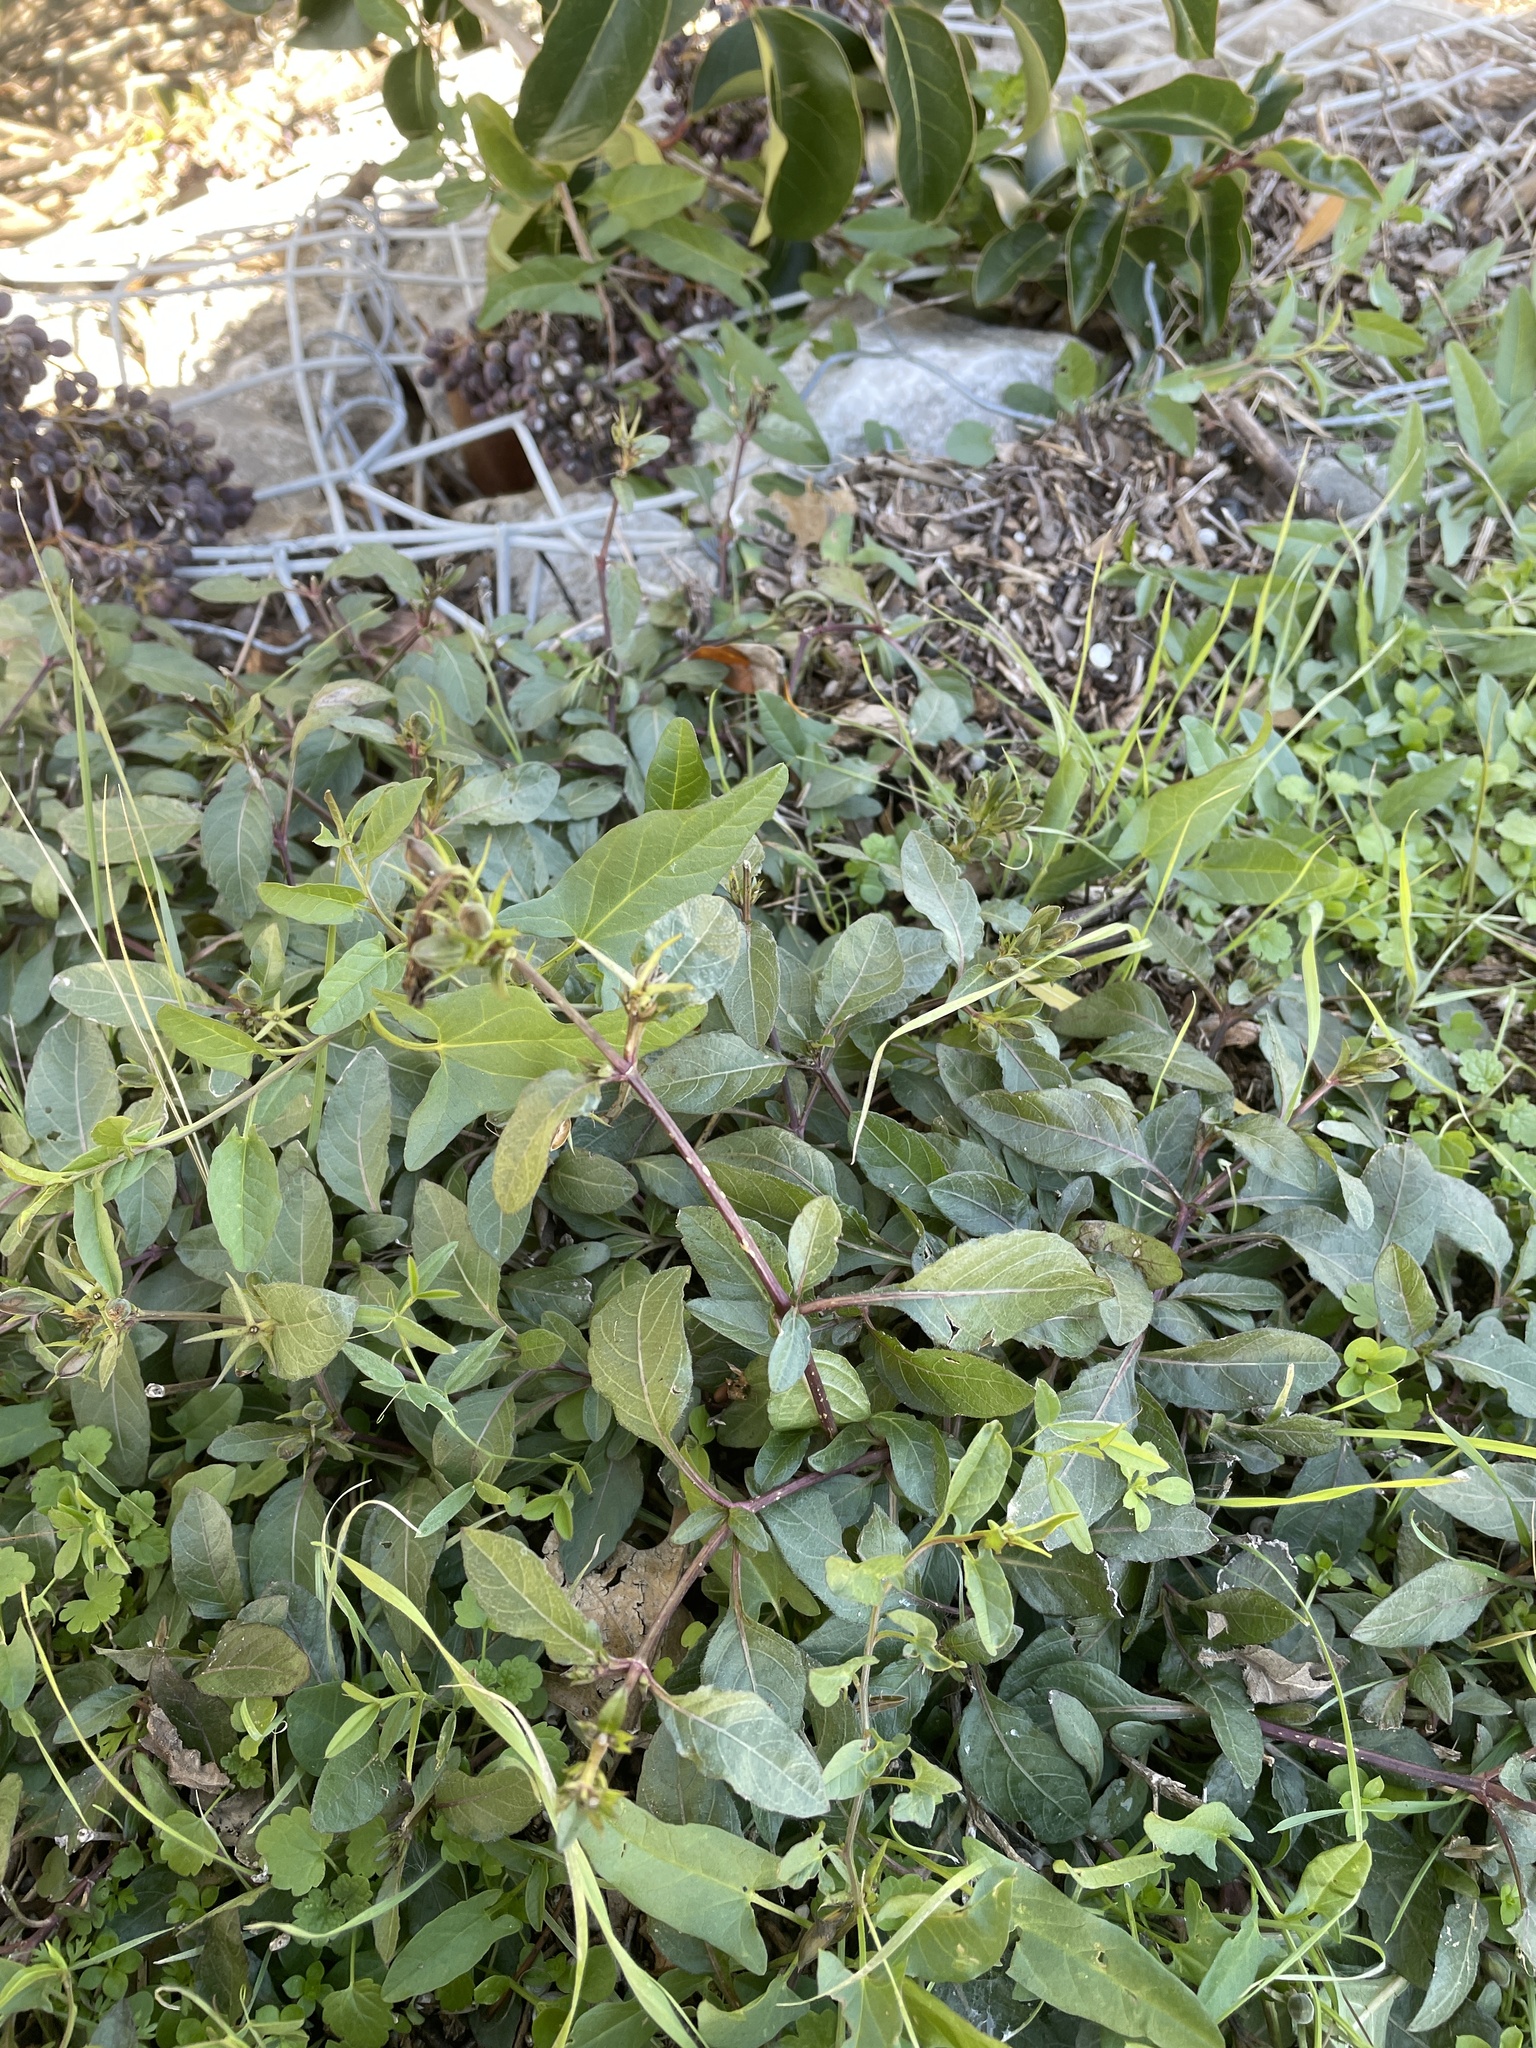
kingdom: Plantae
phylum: Tracheophyta
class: Magnoliopsida
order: Lamiales
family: Acanthaceae
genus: Ruellia
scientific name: Ruellia ciliatiflora
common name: Hairyflower wild petunia
